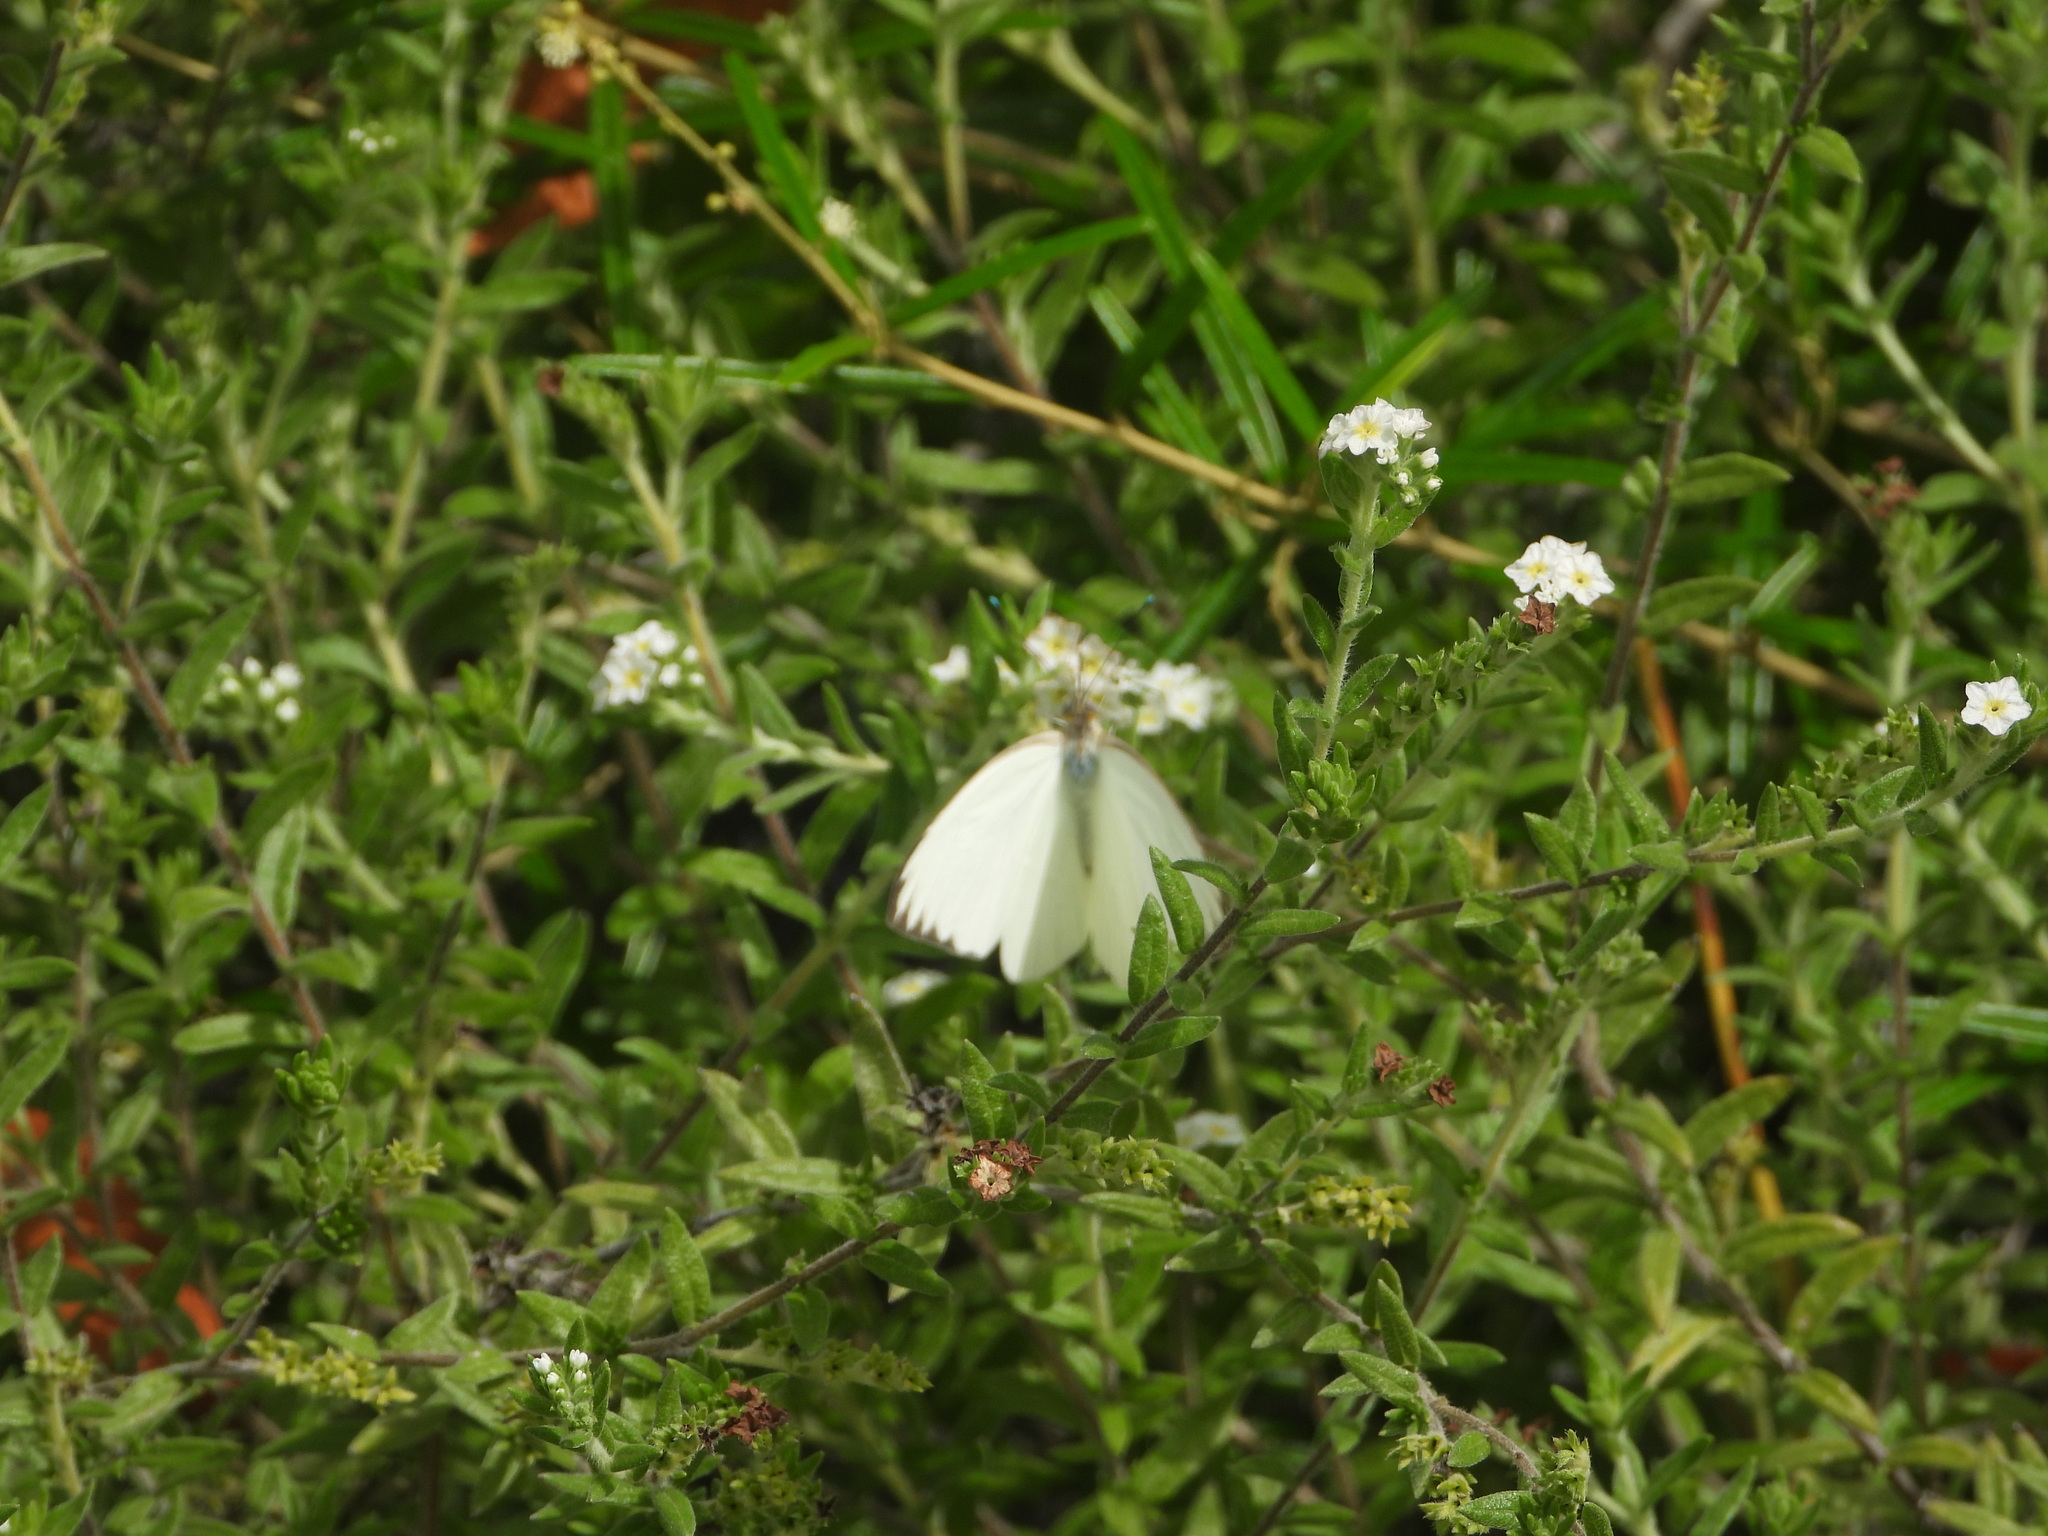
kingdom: Animalia
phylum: Arthropoda
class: Insecta
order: Lepidoptera
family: Pieridae
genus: Ascia
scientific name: Ascia monuste
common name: Great southern white
